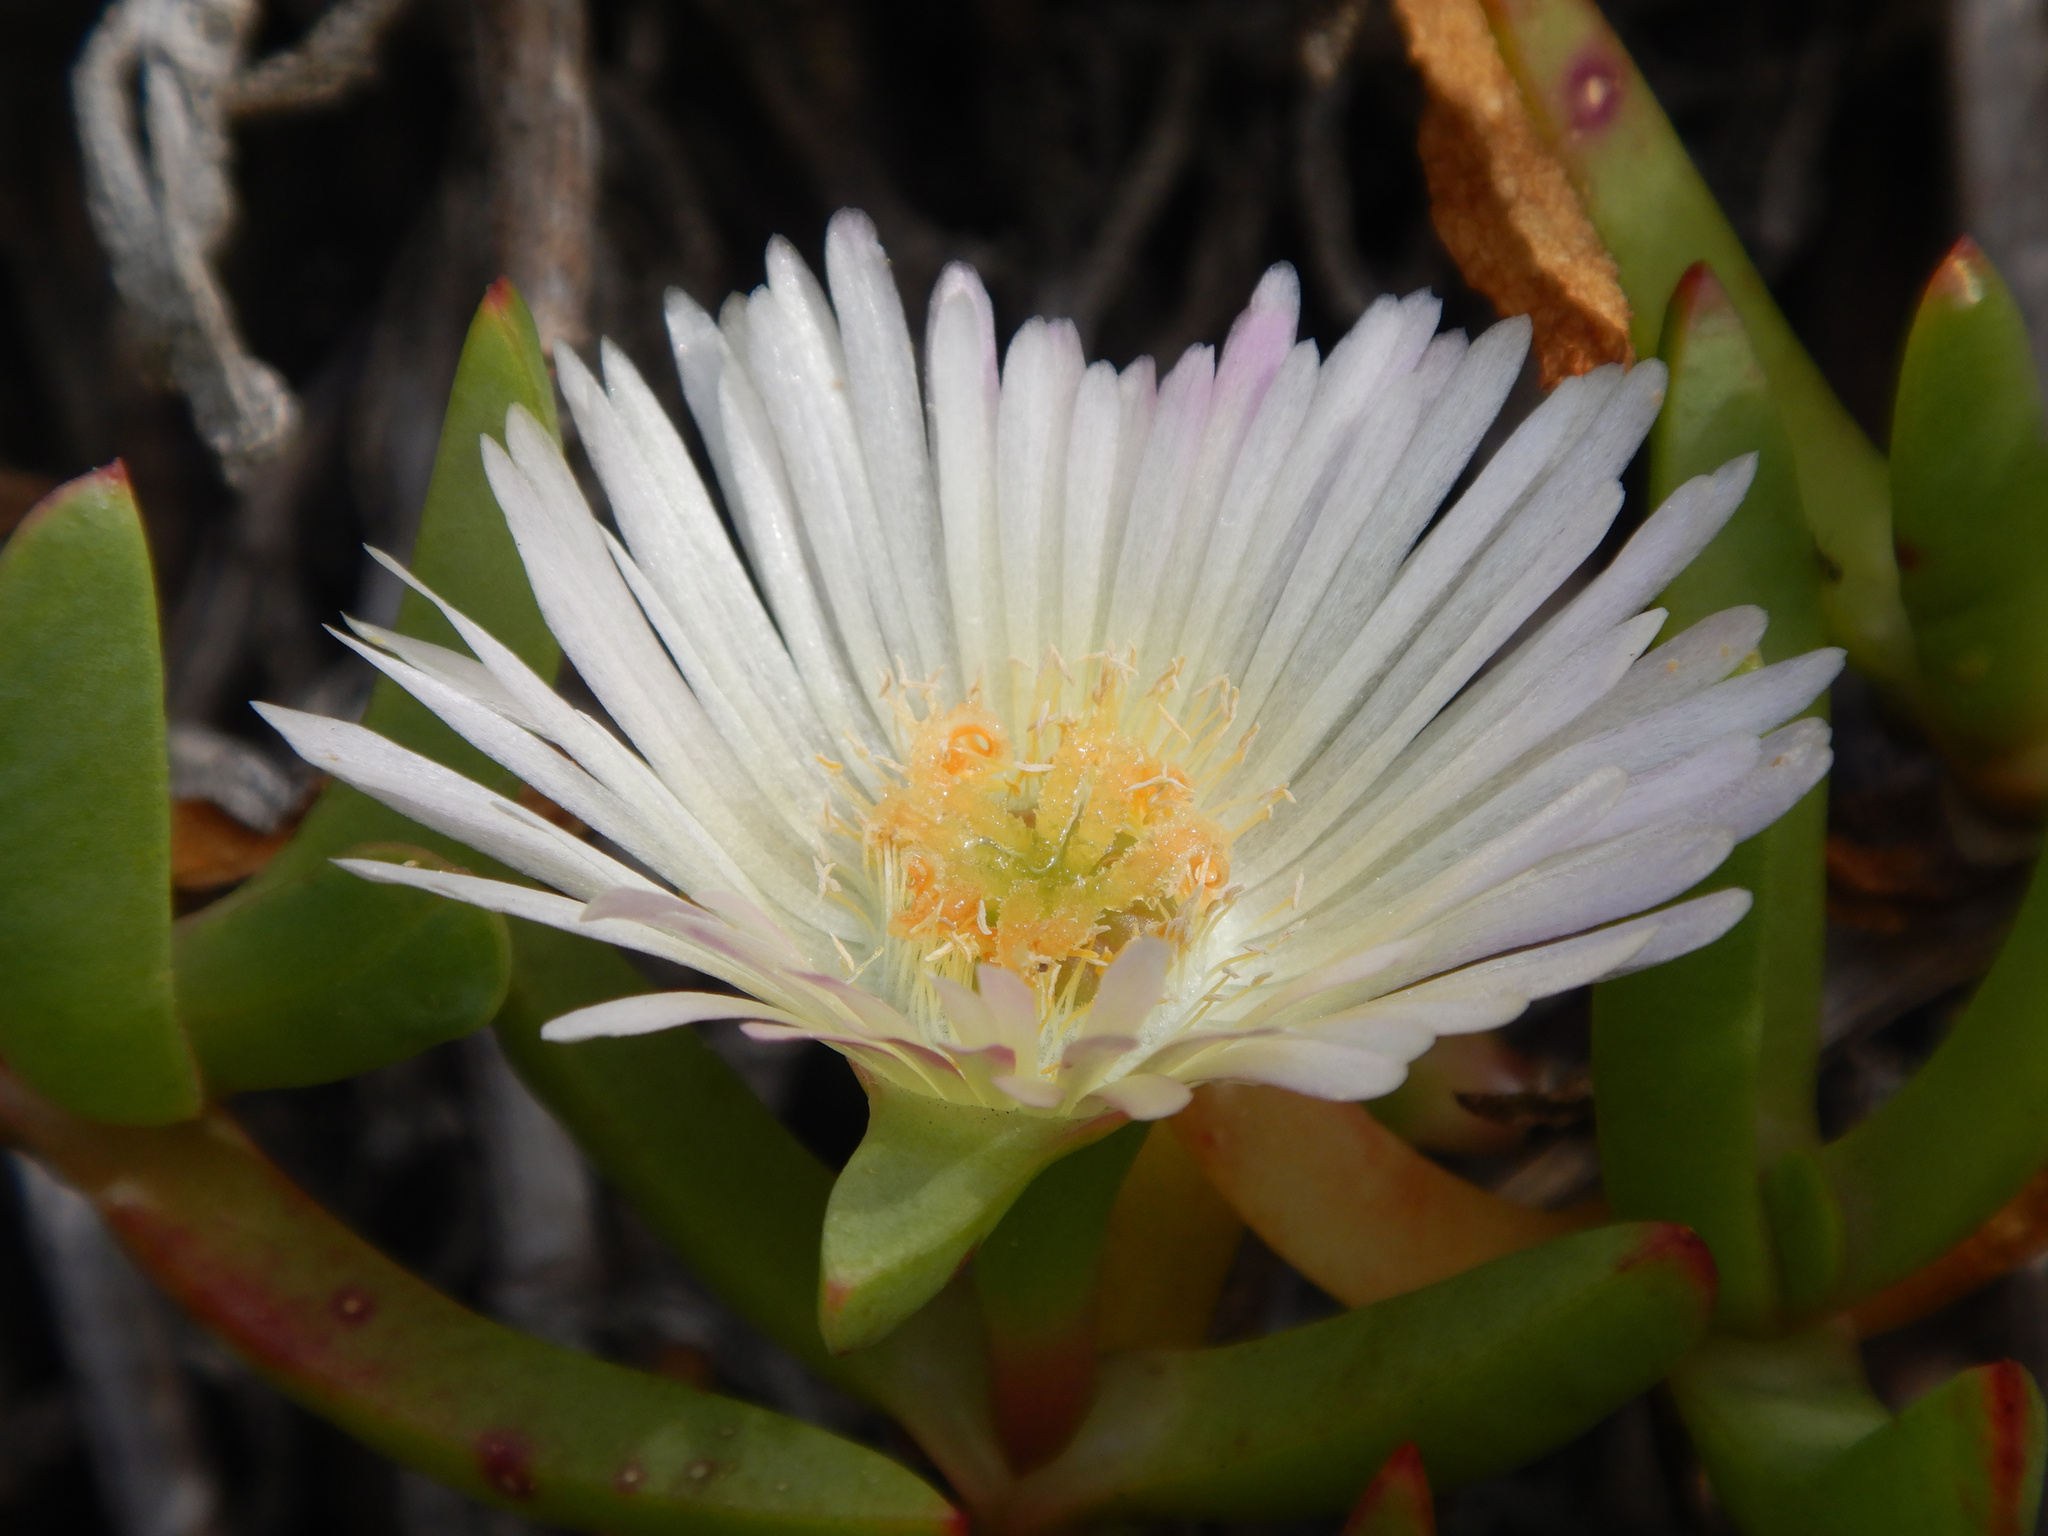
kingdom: Plantae
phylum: Tracheophyta
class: Magnoliopsida
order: Caryophyllales
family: Aizoaceae
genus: Disphyma
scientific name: Disphyma australe
